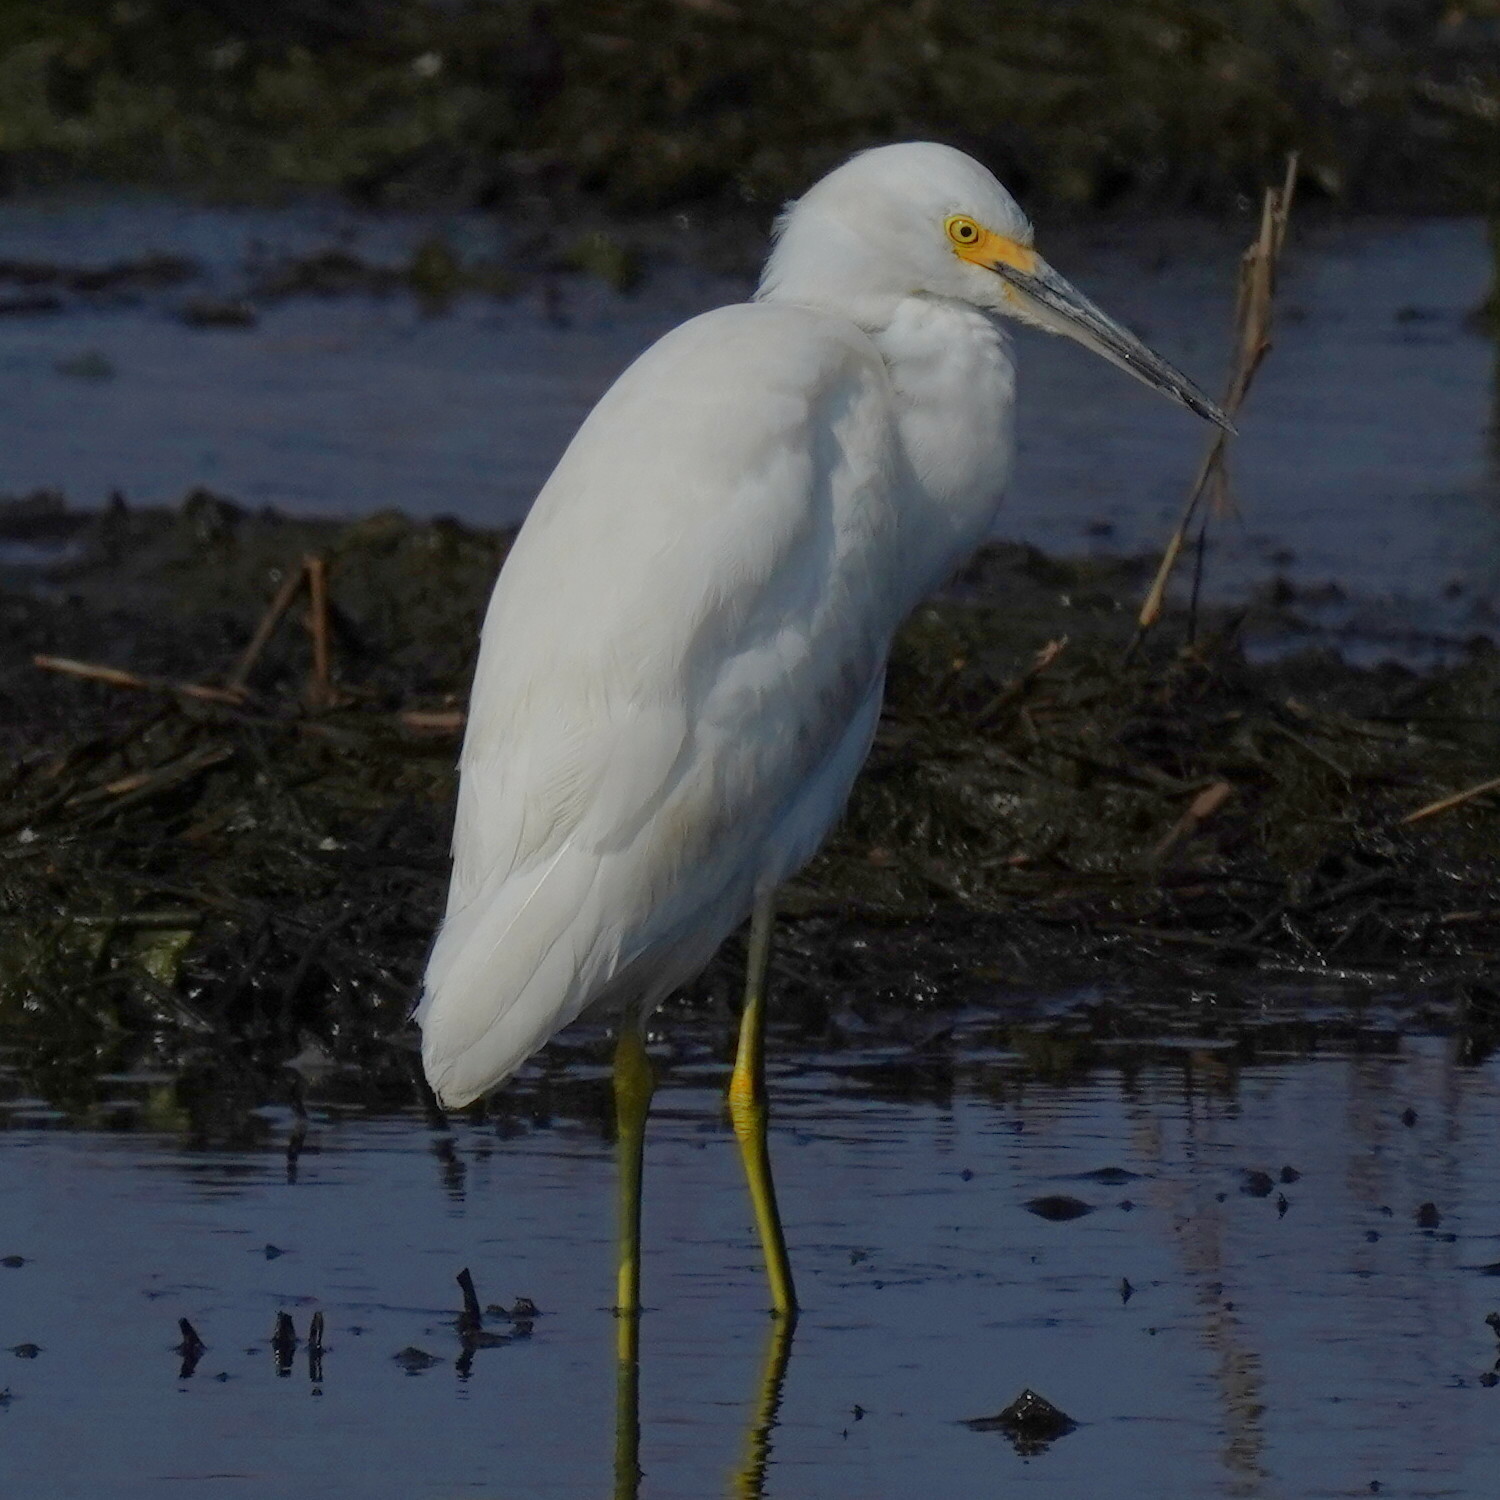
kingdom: Animalia
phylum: Chordata
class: Aves
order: Pelecaniformes
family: Ardeidae
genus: Egretta
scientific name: Egretta thula
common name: Snowy egret
